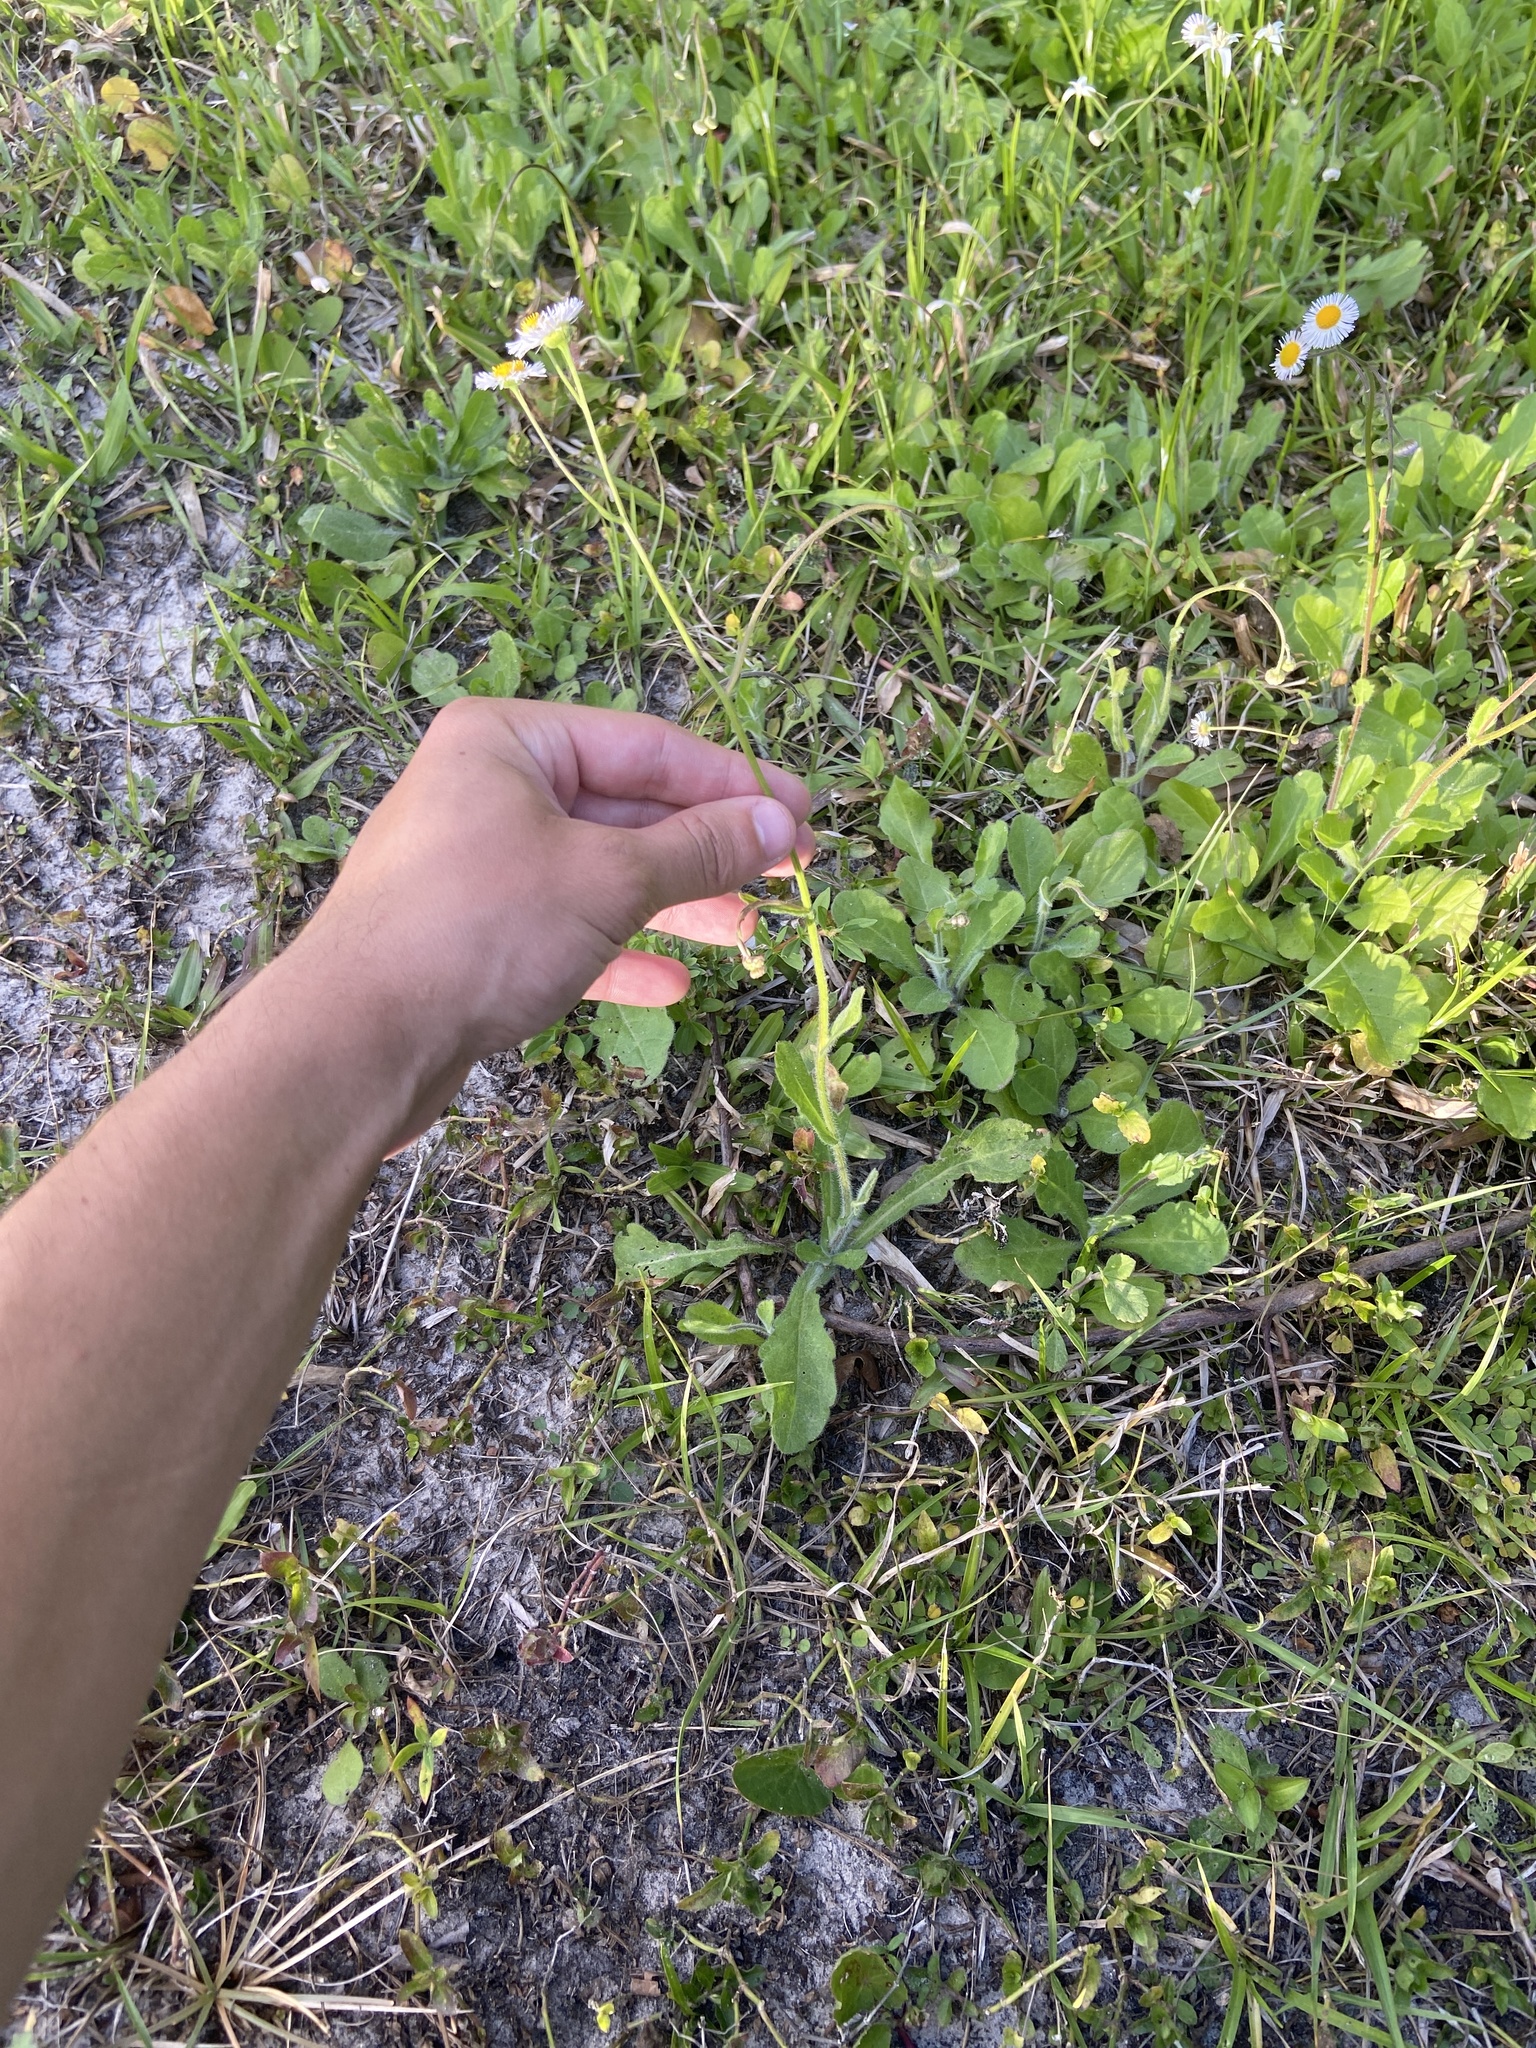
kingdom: Plantae
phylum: Tracheophyta
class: Magnoliopsida
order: Asterales
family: Asteraceae
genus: Erigeron
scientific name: Erigeron quercifolius
